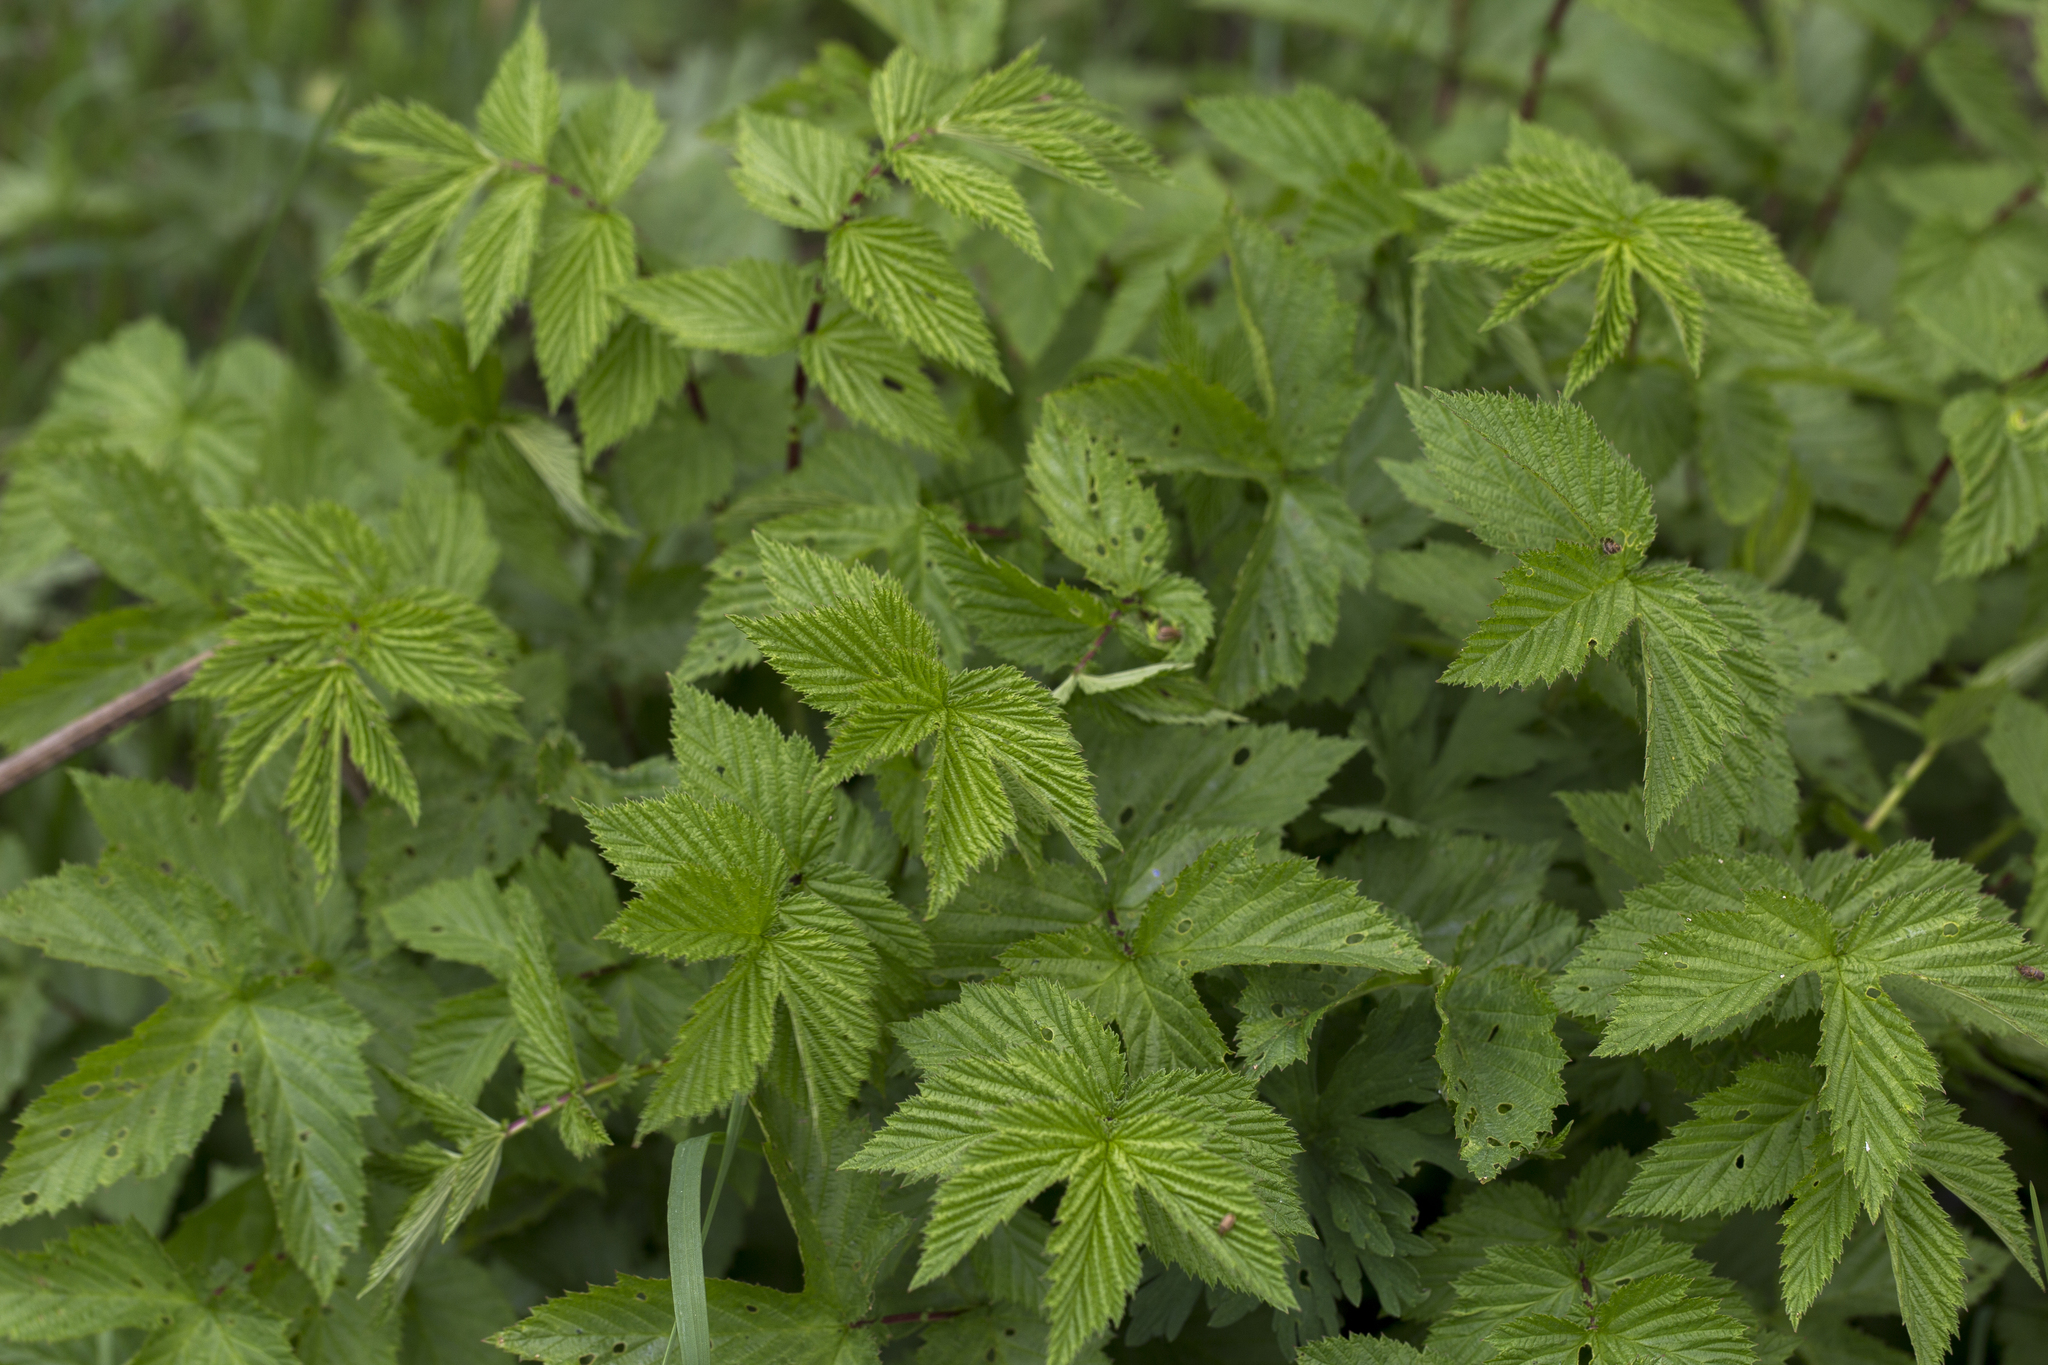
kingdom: Plantae
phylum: Tracheophyta
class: Magnoliopsida
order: Rosales
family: Rosaceae
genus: Filipendula
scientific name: Filipendula ulmaria
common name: Meadowsweet
